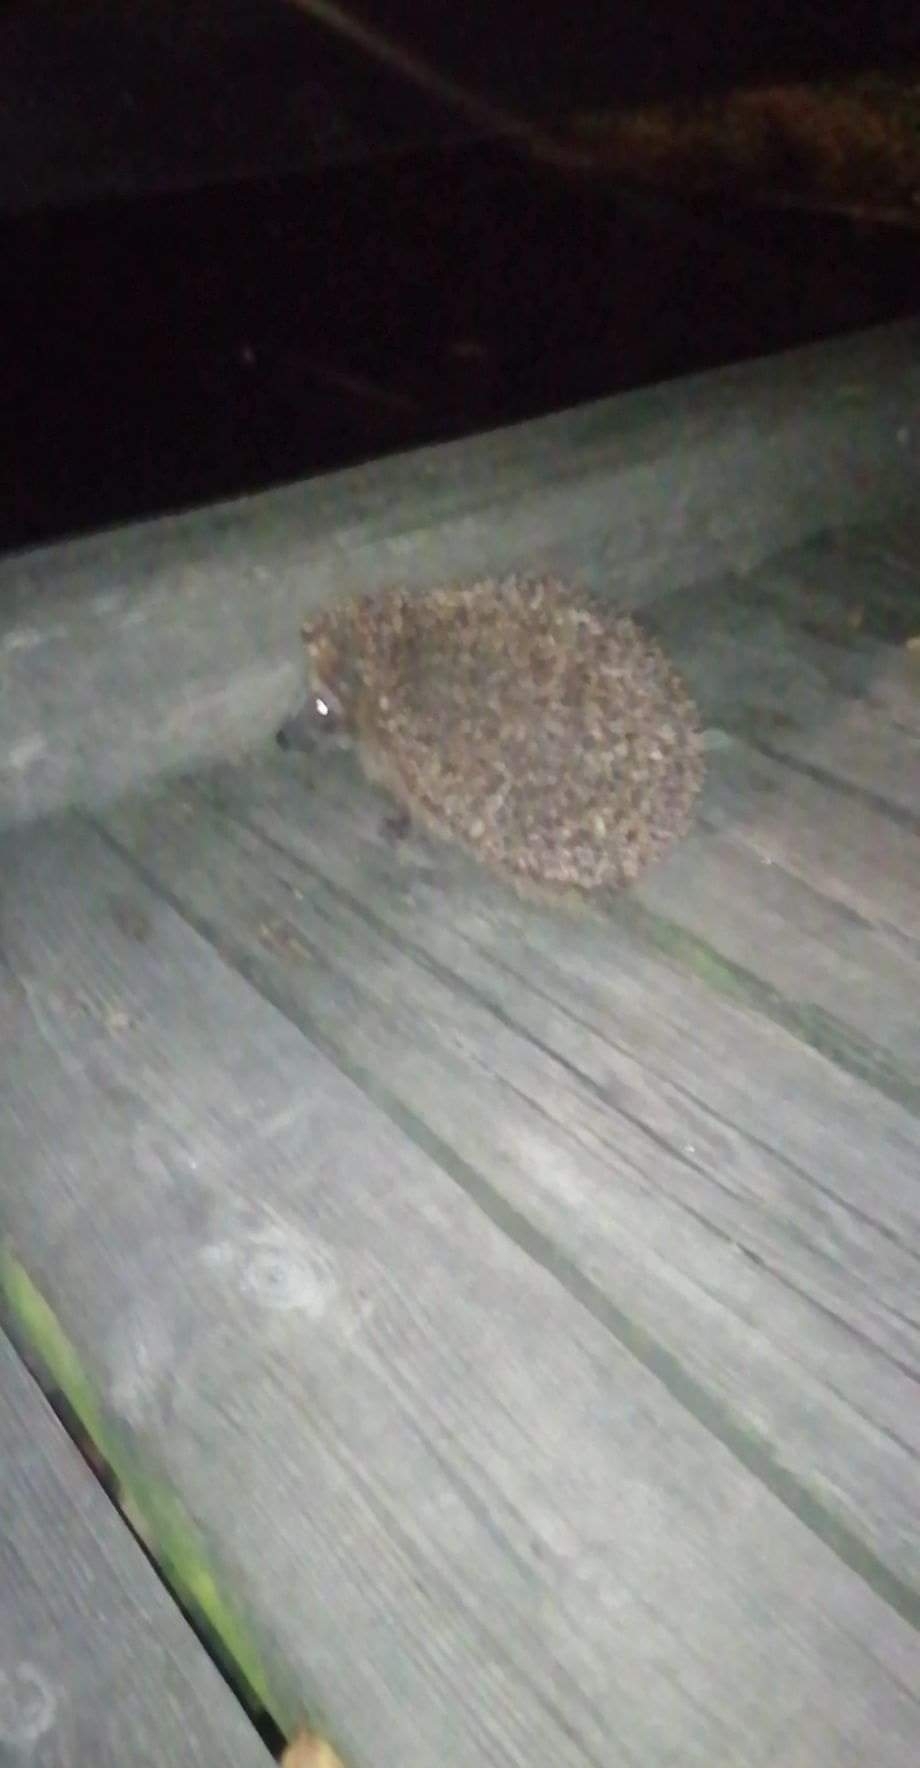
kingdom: Animalia
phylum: Chordata
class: Mammalia
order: Erinaceomorpha
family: Erinaceidae
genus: Erinaceus
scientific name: Erinaceus europaeus
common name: West european hedgehog
